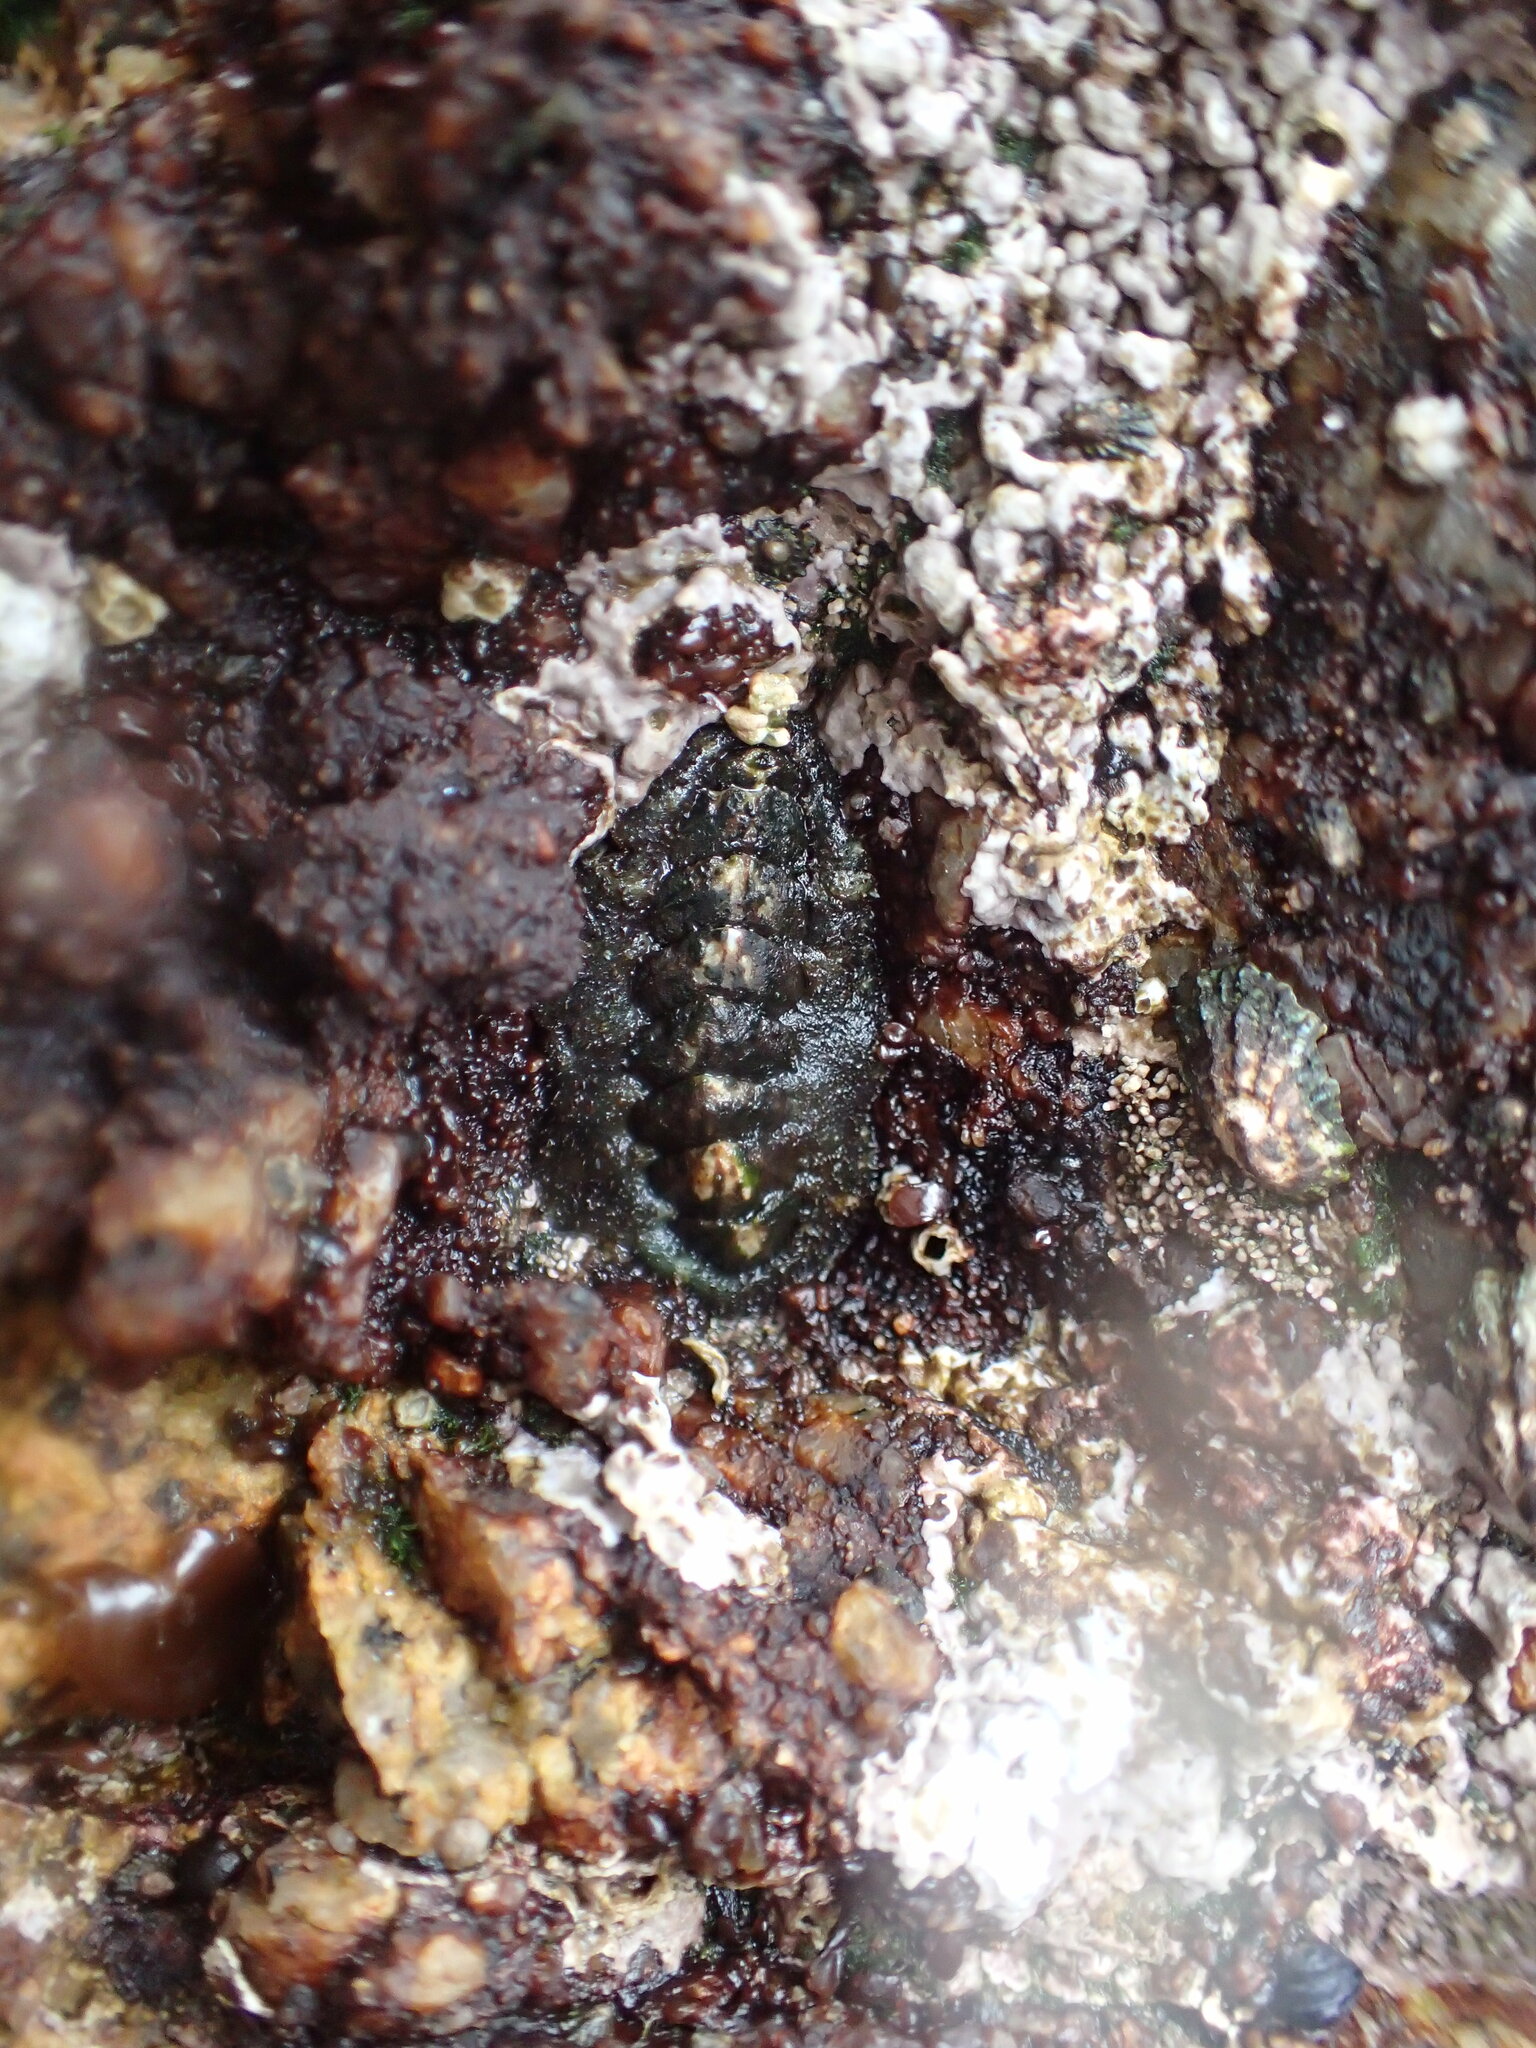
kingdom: Animalia
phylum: Mollusca
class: Polyplacophora
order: Chitonida
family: Tonicellidae
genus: Nuttallina
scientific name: Nuttallina californica
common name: California nuttall chiton
